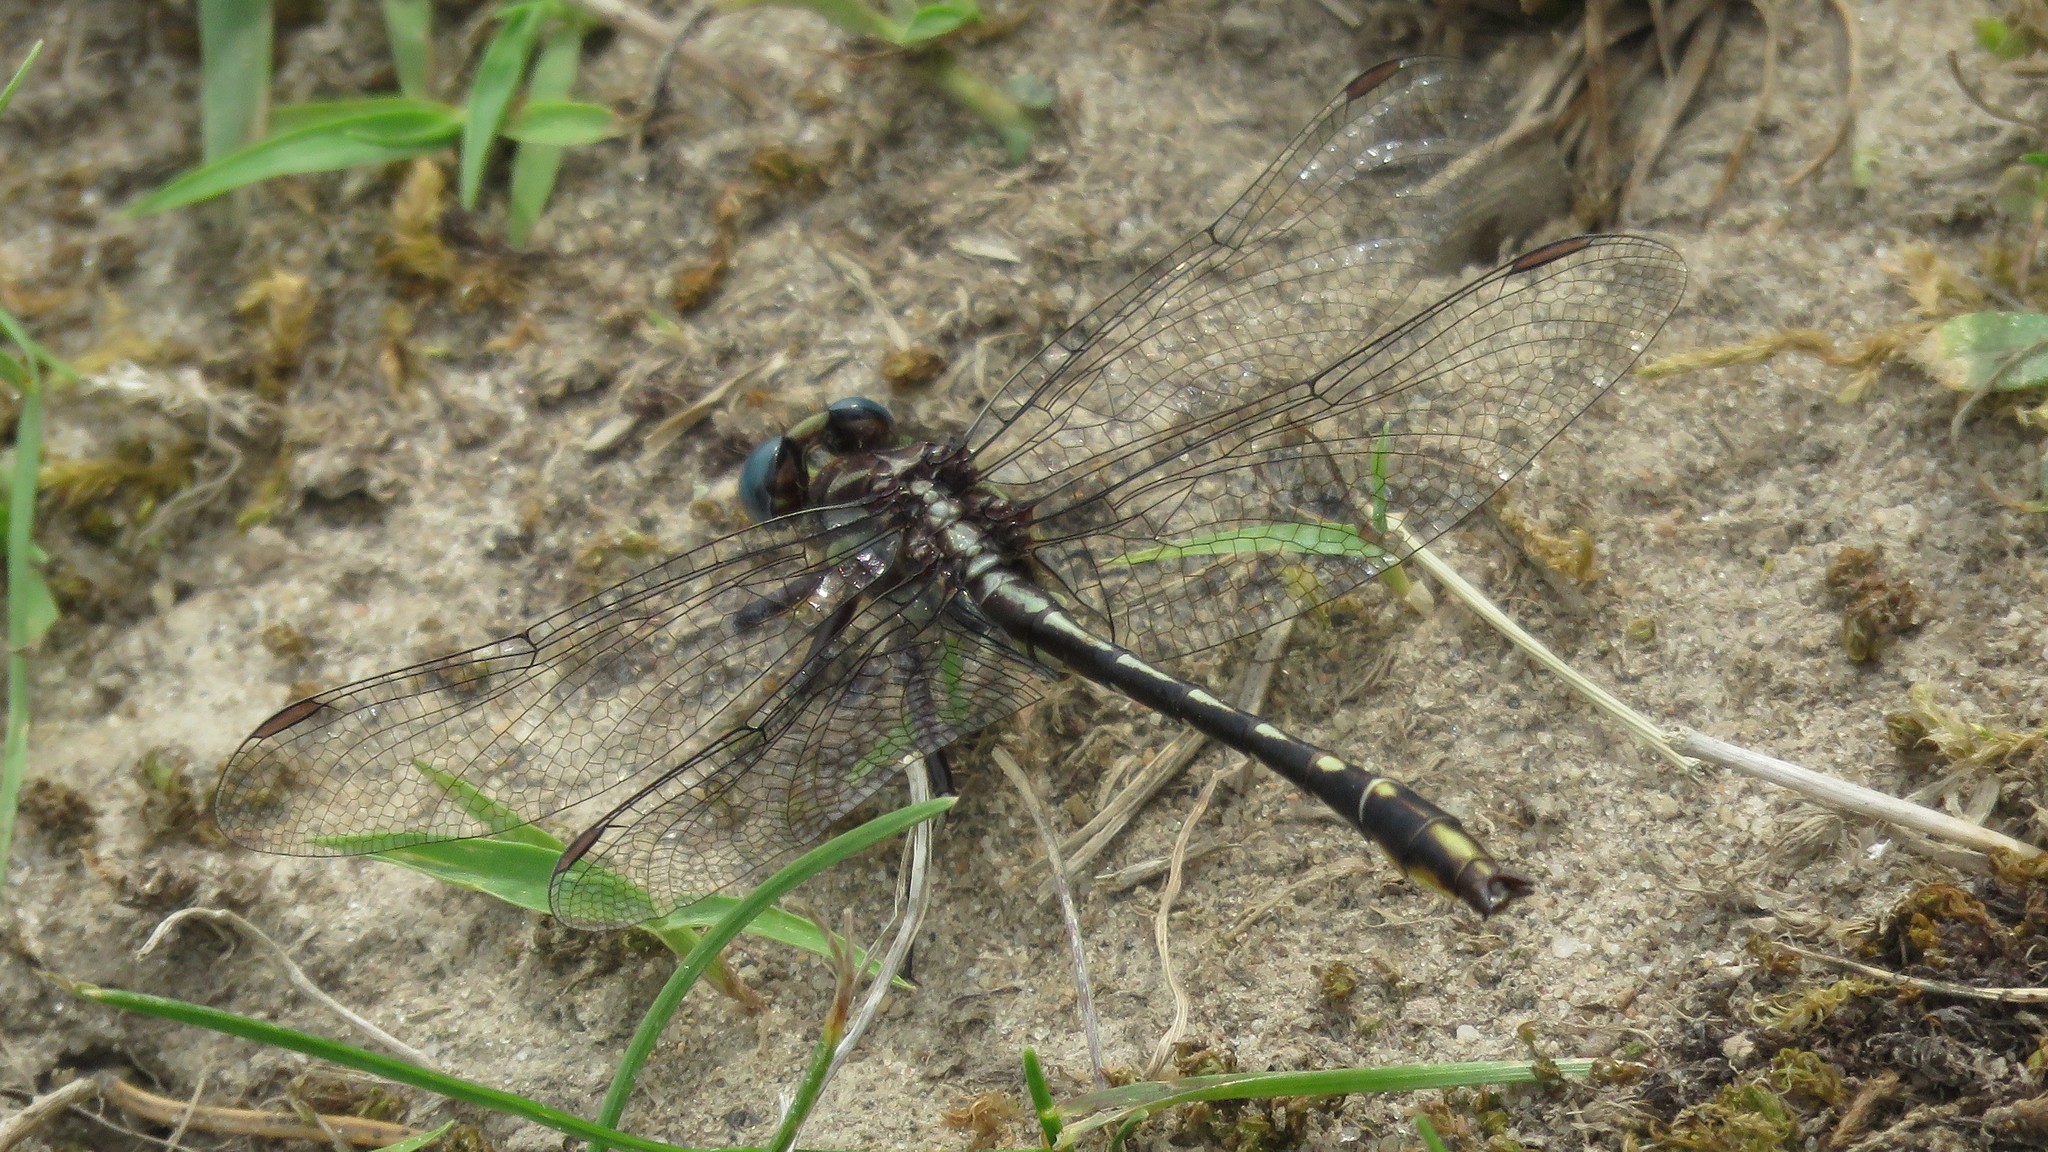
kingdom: Animalia
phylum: Arthropoda
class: Insecta
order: Odonata
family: Gomphidae
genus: Phanogomphus
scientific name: Phanogomphus exilis
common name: Lancet clubtail
